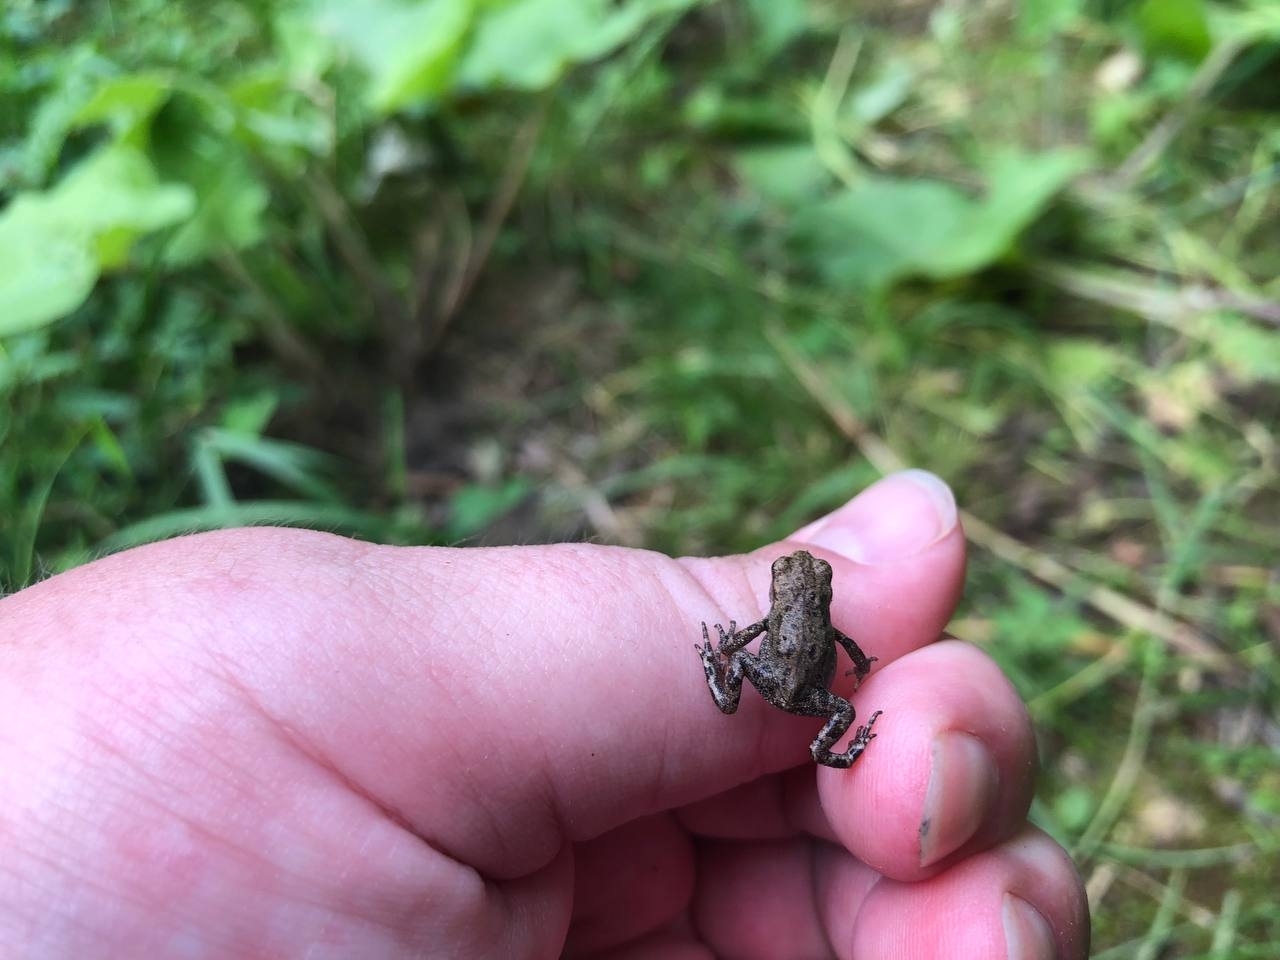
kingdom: Animalia
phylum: Chordata
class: Amphibia
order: Anura
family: Bufonidae
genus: Bufo
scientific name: Bufo bufo
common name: Common toad
